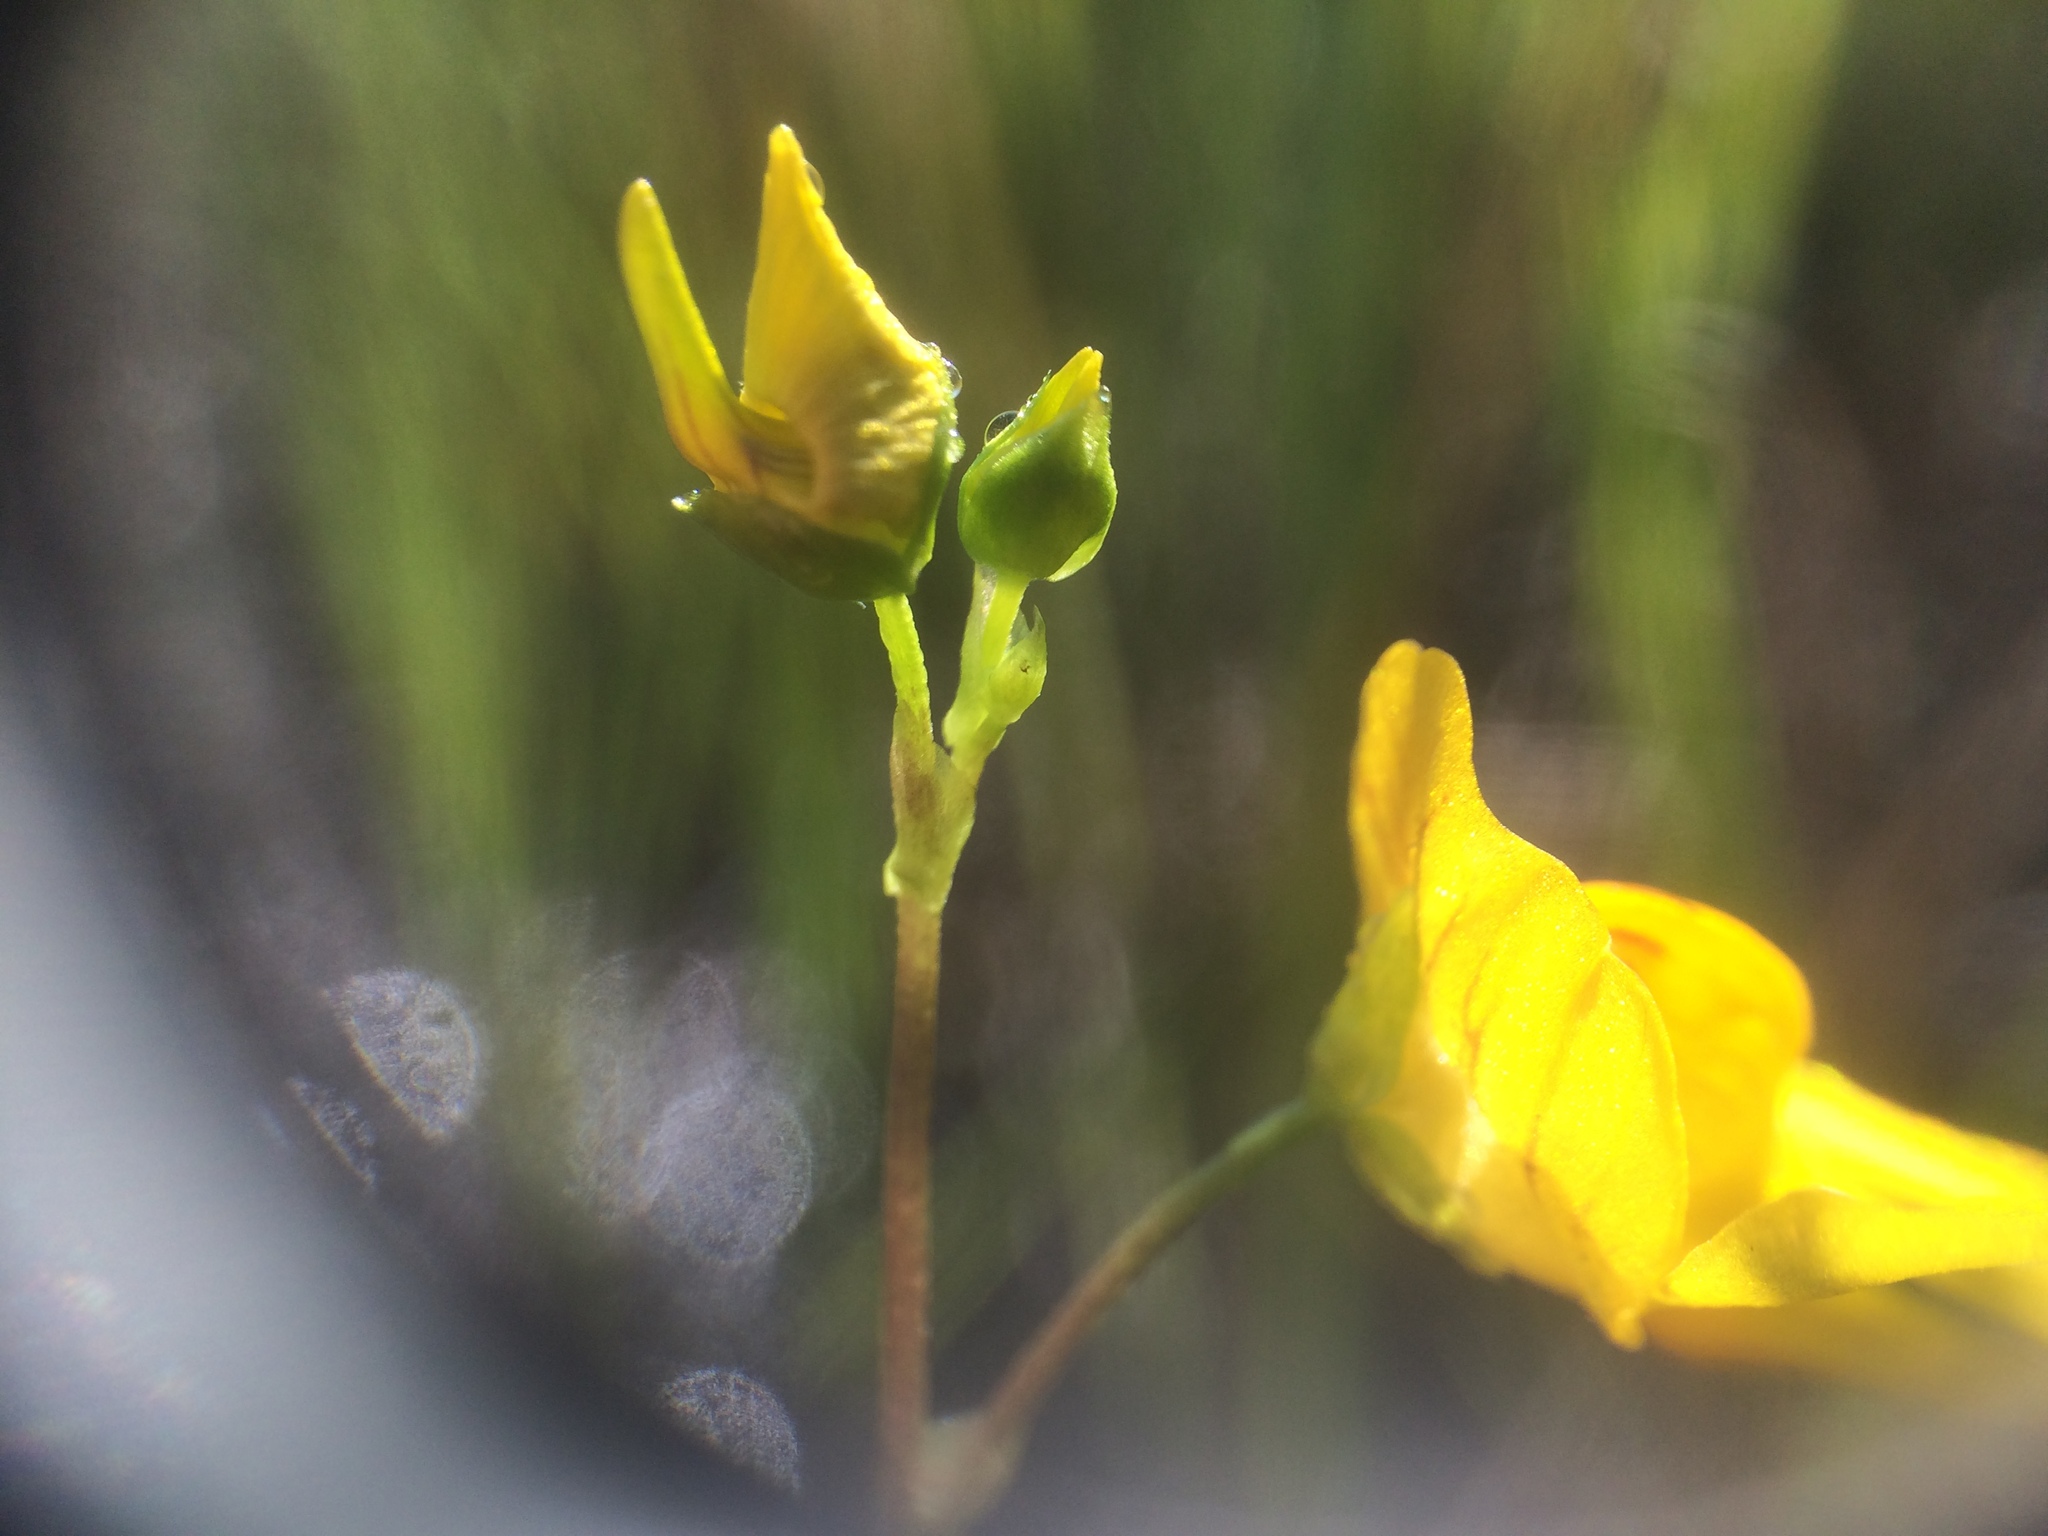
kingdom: Plantae
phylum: Tracheophyta
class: Magnoliopsida
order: Lamiales
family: Lentibulariaceae
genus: Utricularia
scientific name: Utricularia intermedia
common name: Intermediate bladderwort
